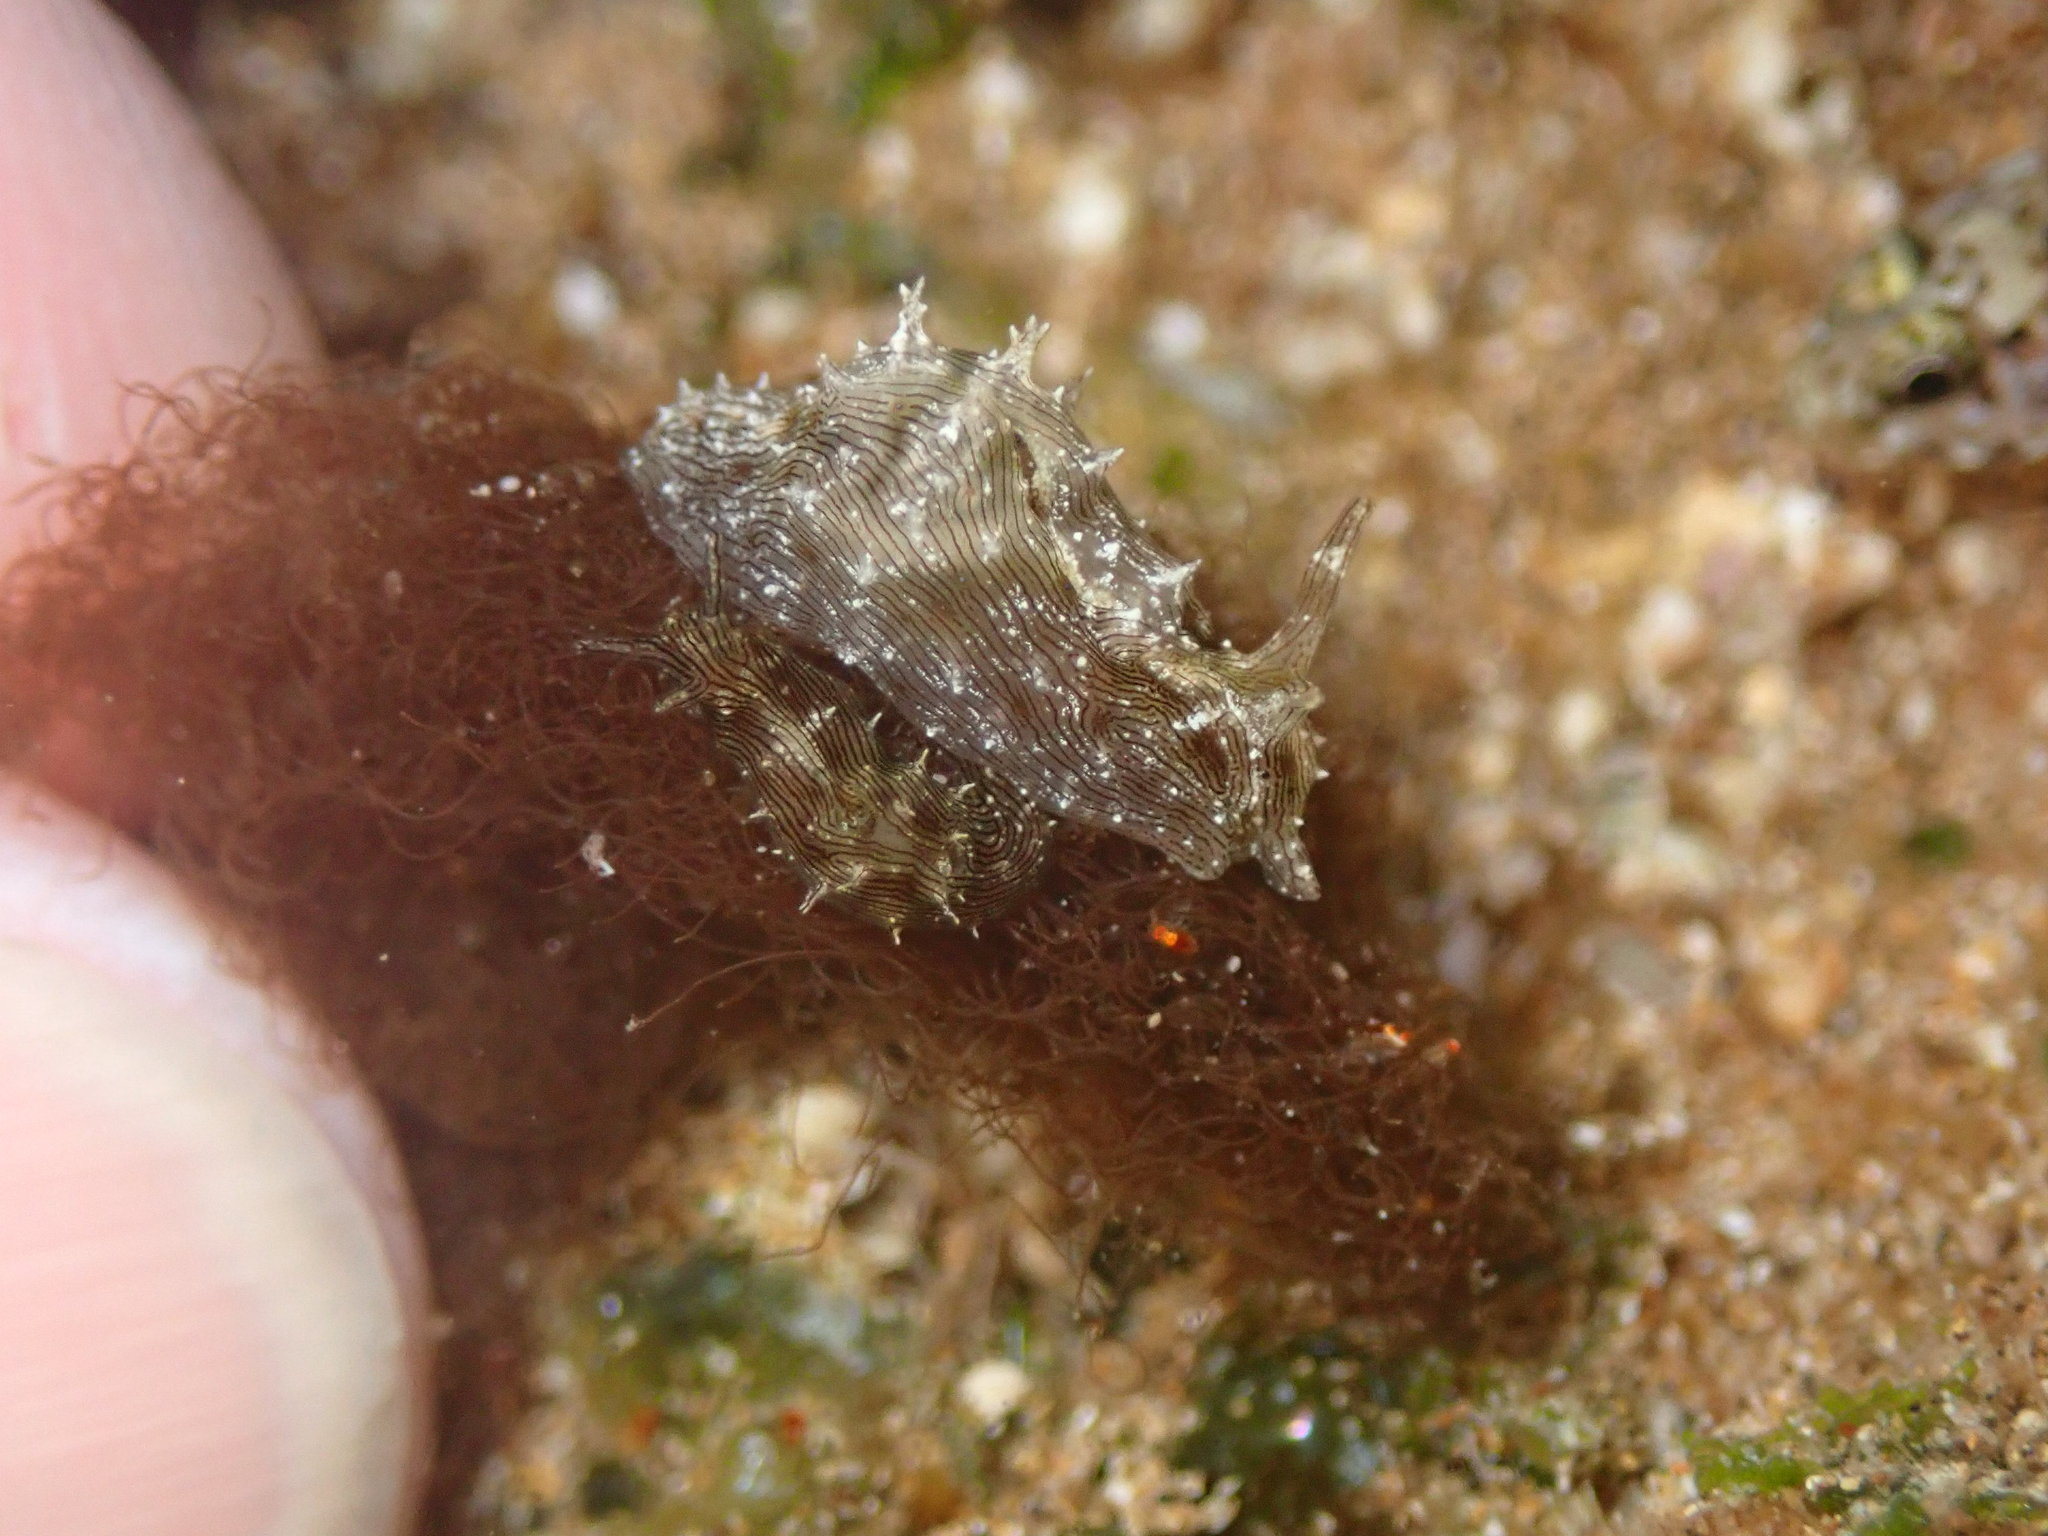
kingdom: Animalia
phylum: Mollusca
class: Gastropoda
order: Aplysiida
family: Aplysiidae
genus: Stylocheilus
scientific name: Stylocheilus striatus
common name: Striated seahare
